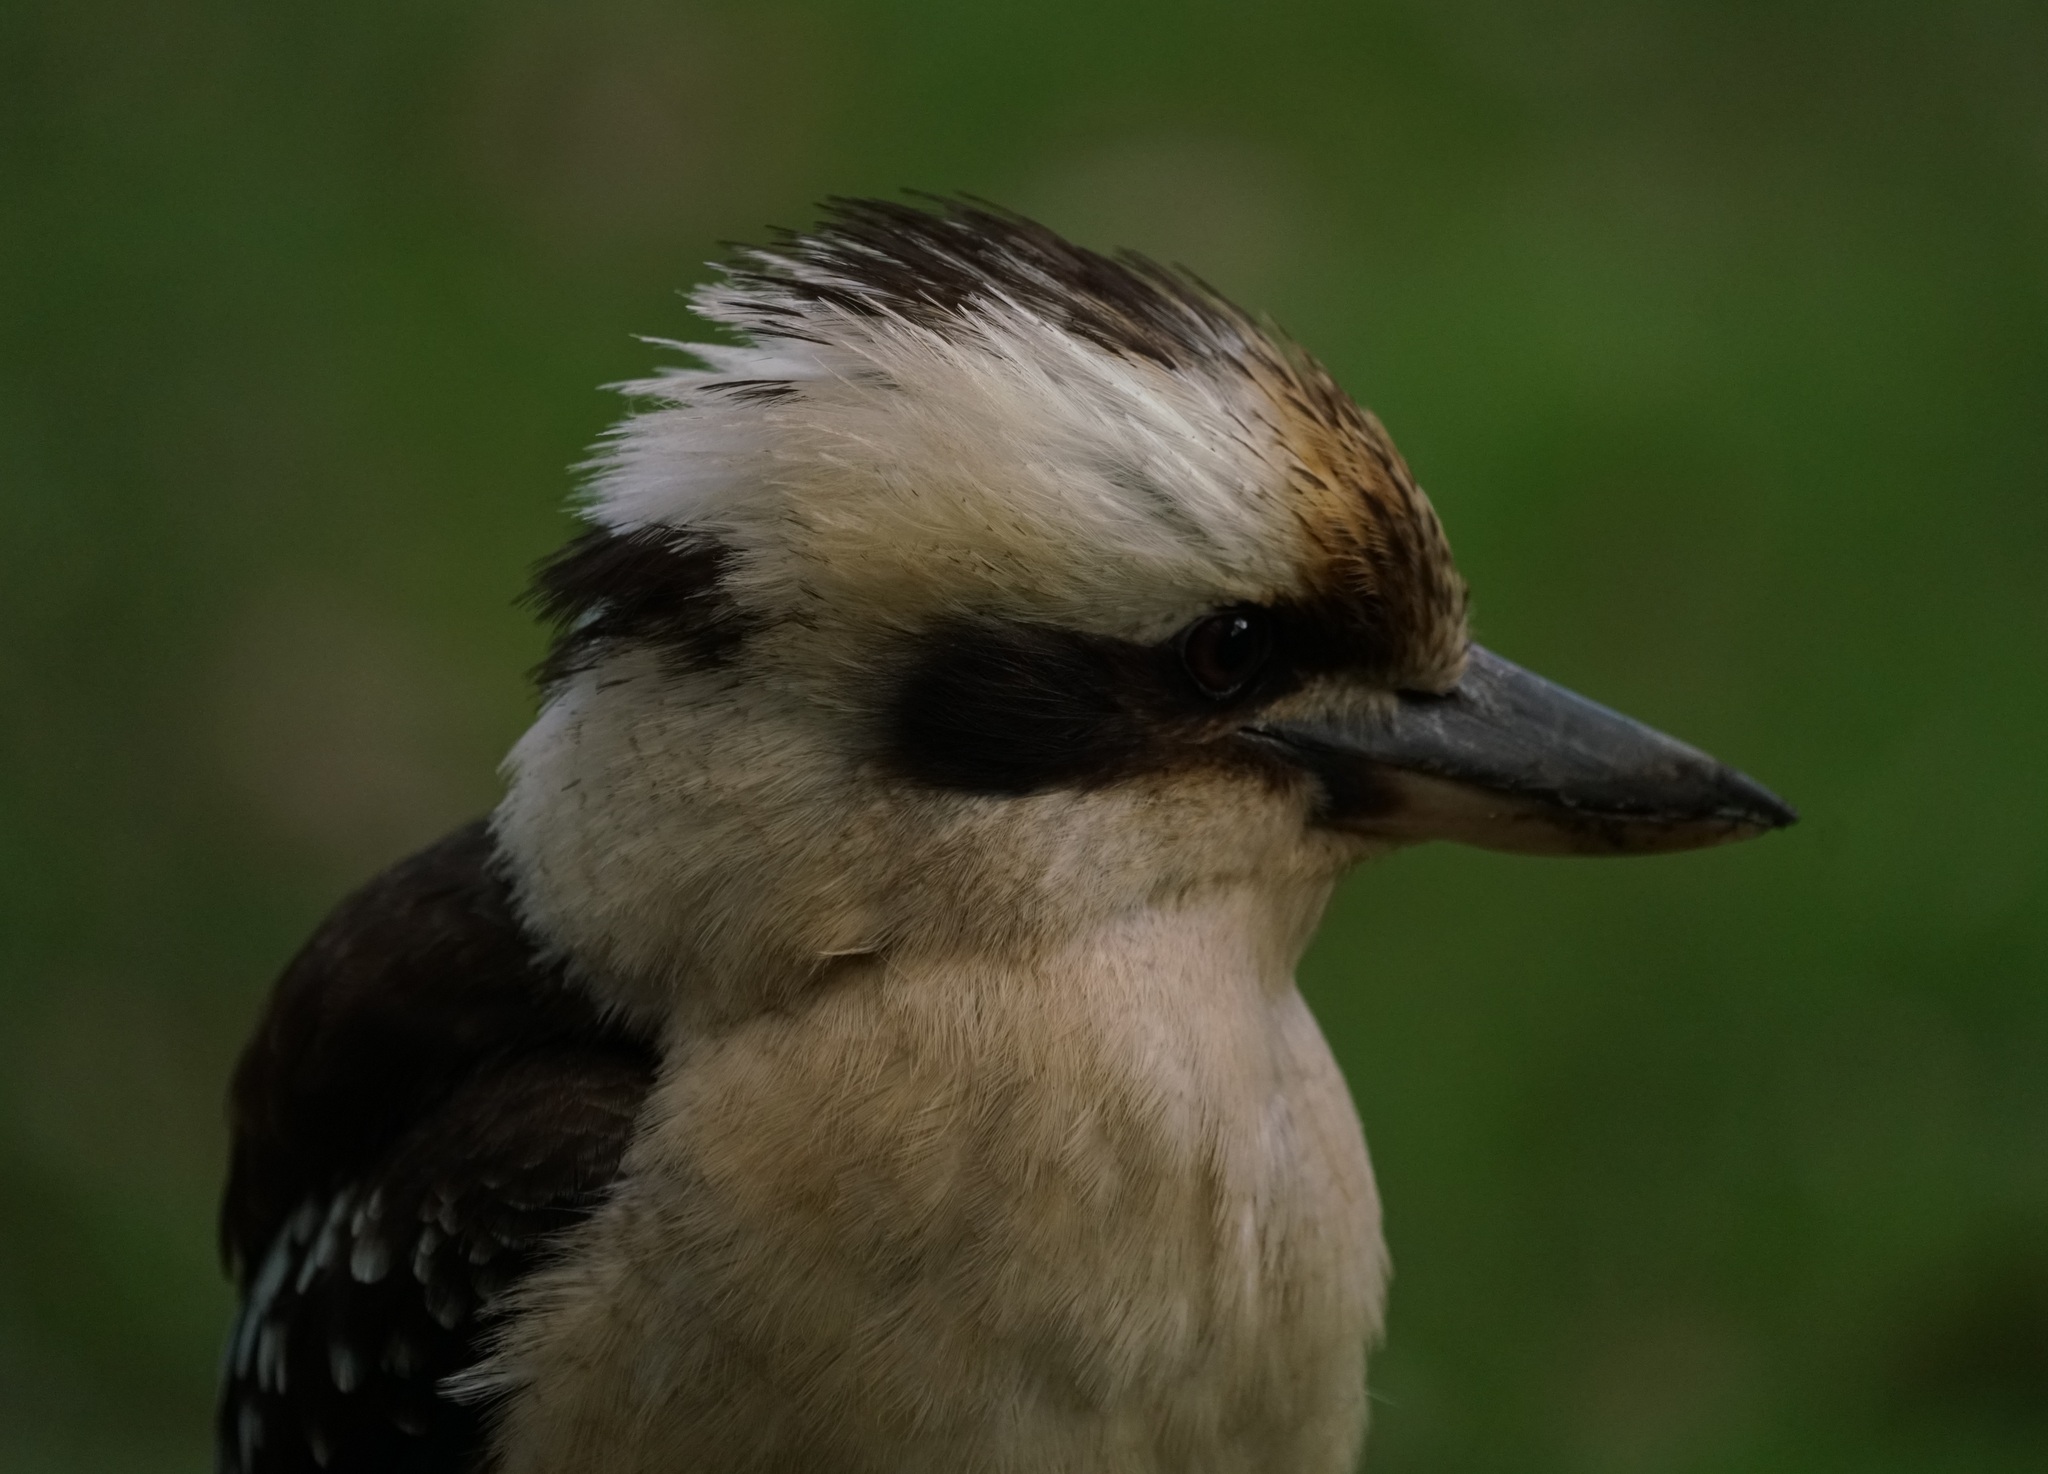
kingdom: Animalia
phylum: Chordata
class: Aves
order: Coraciiformes
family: Alcedinidae
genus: Dacelo
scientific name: Dacelo novaeguineae
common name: Laughing kookaburra
